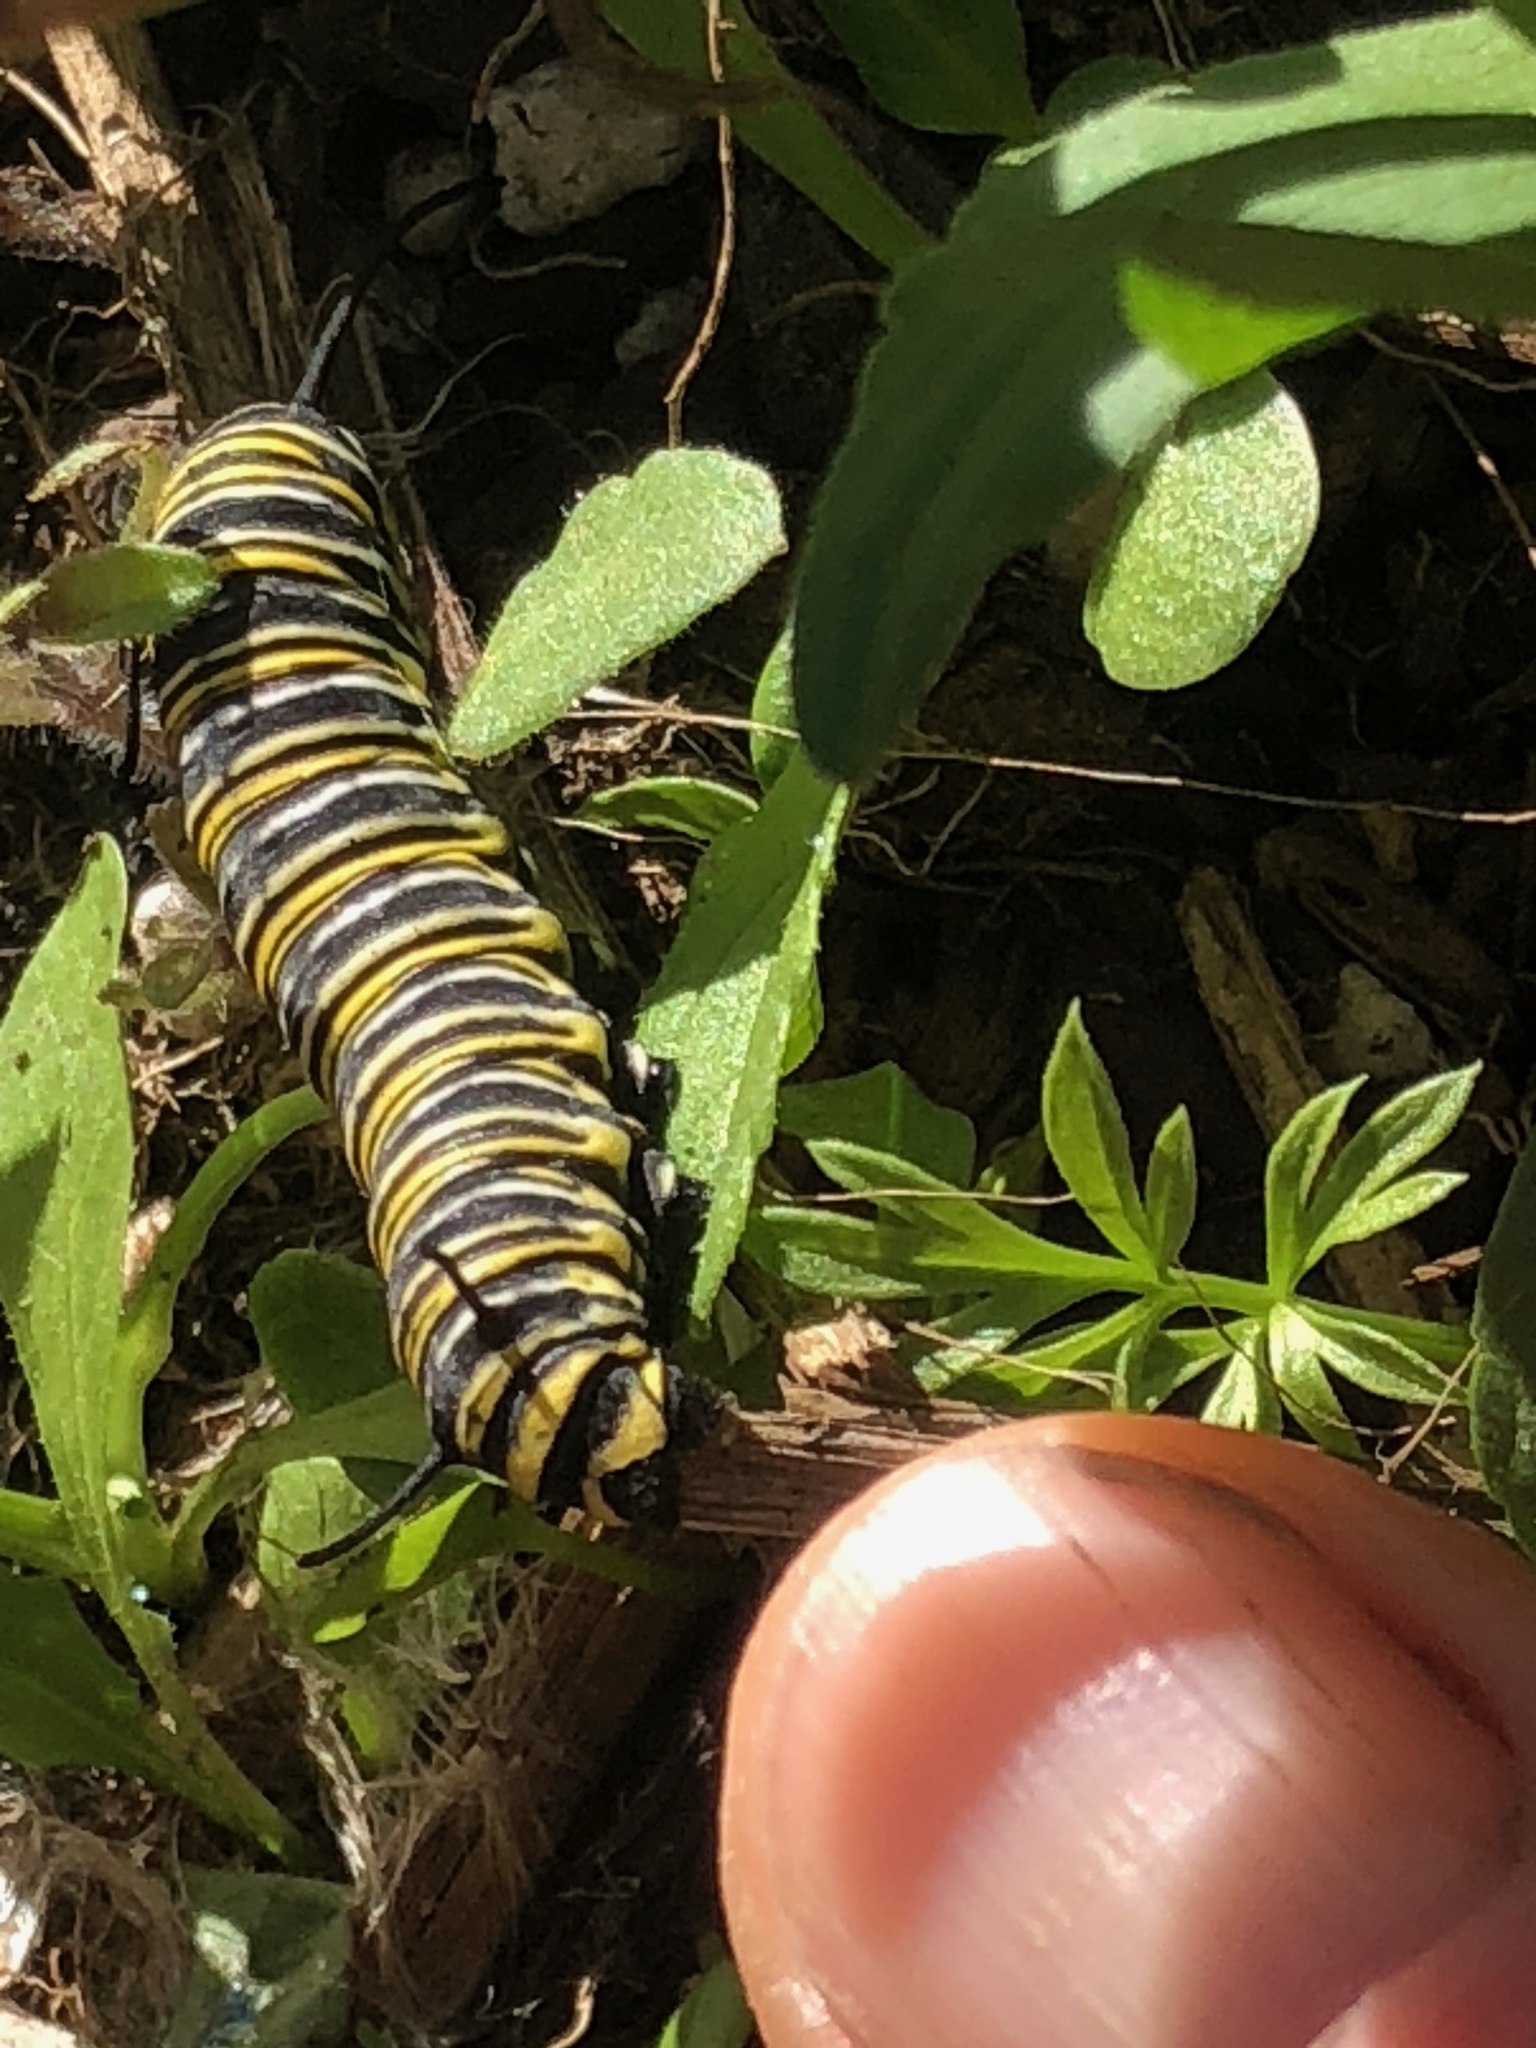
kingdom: Animalia
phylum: Arthropoda
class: Insecta
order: Lepidoptera
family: Nymphalidae
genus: Danaus
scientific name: Danaus plexippus
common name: Monarch
